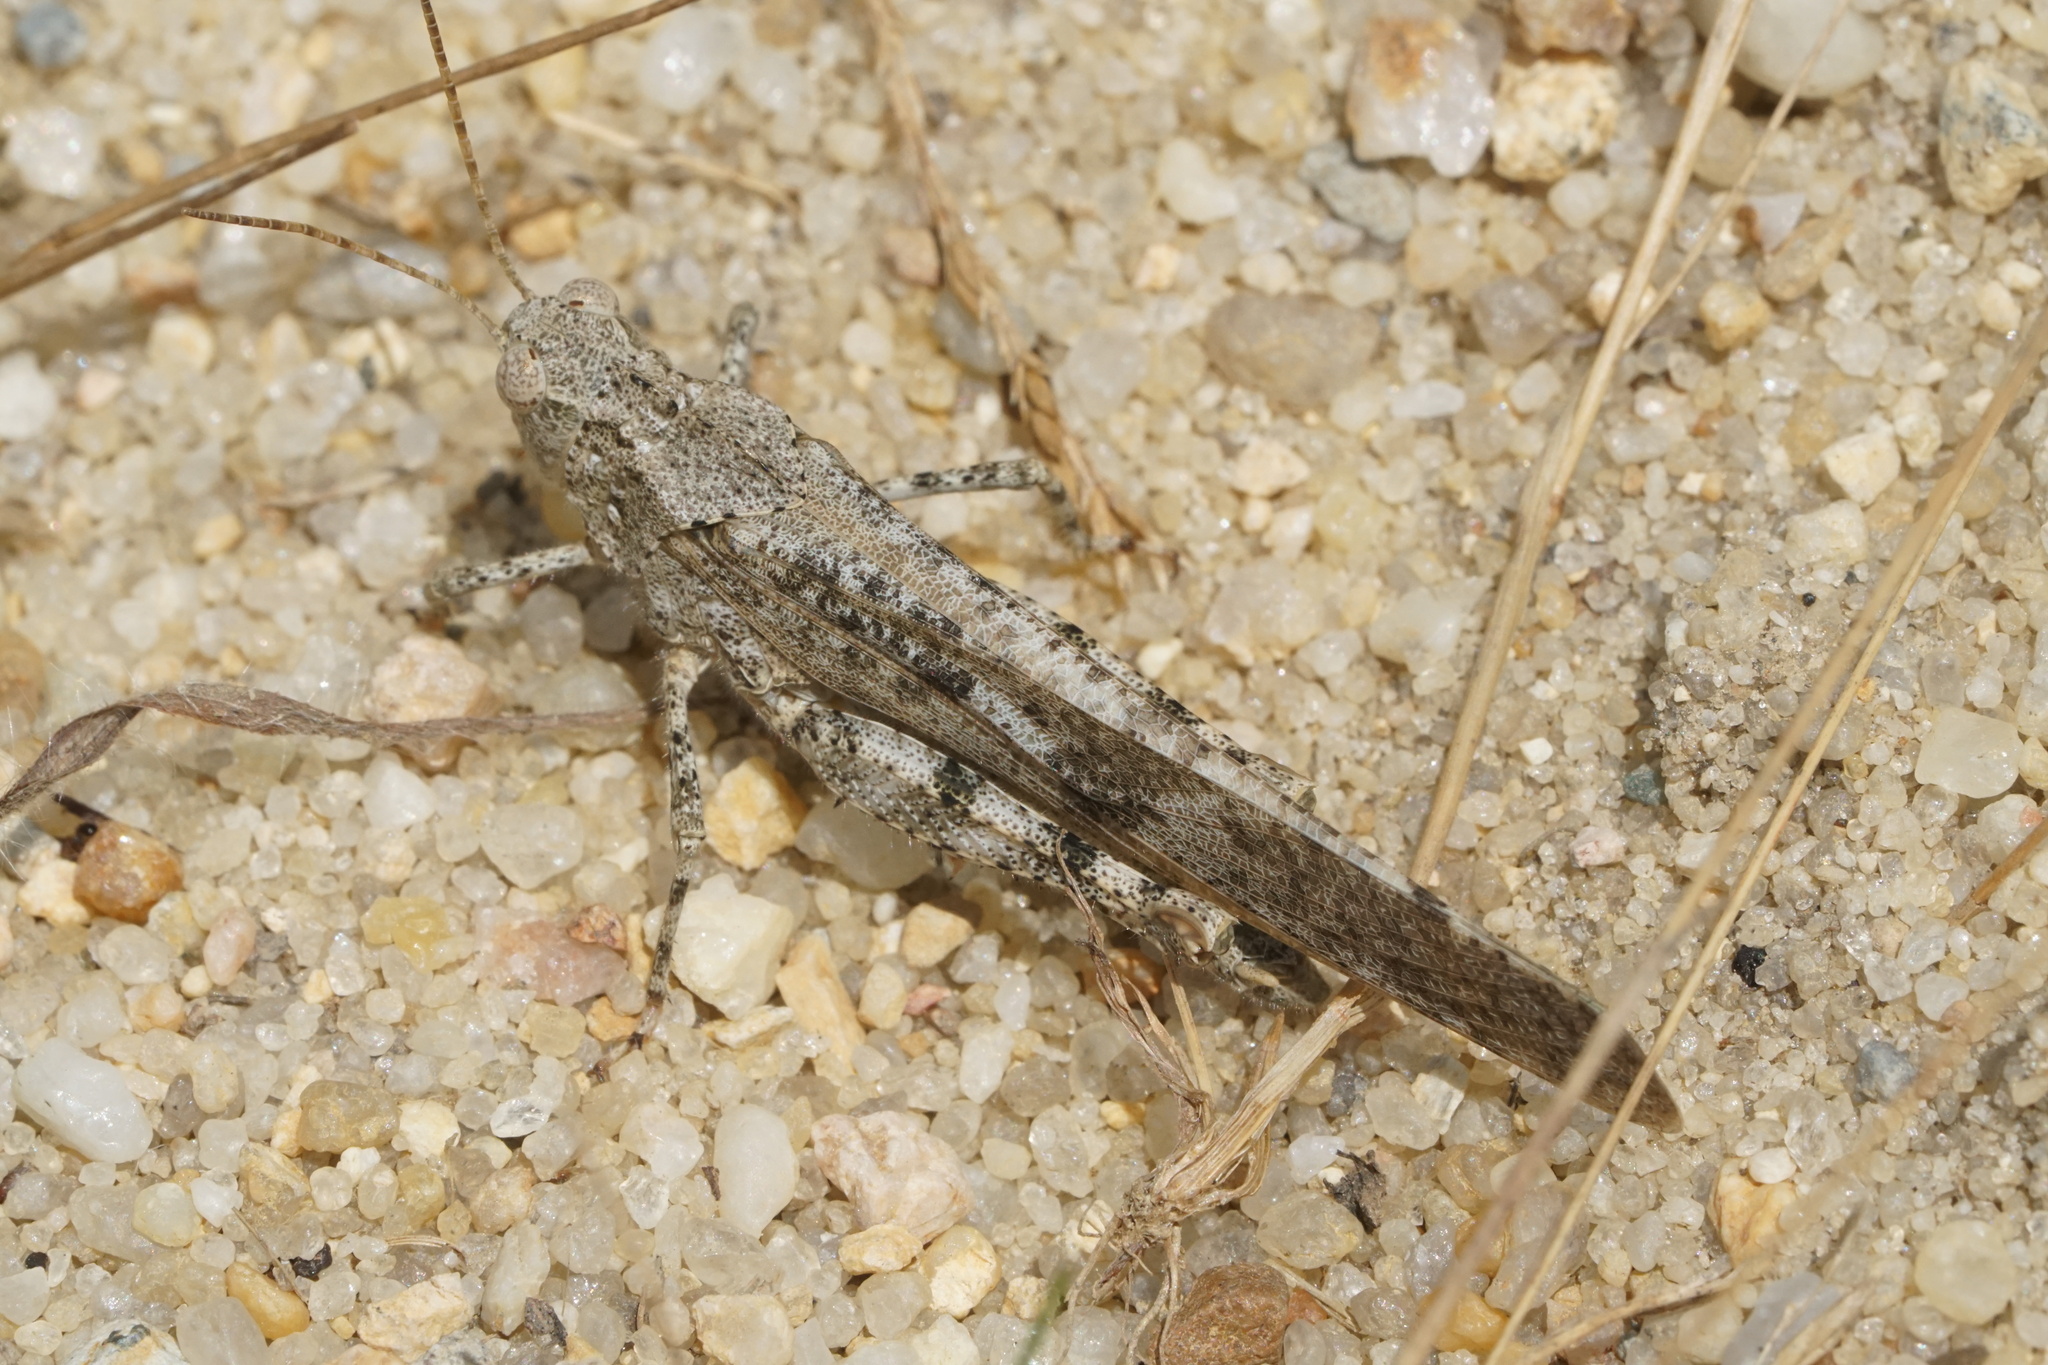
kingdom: Animalia
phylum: Arthropoda
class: Insecta
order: Orthoptera
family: Acrididae
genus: Dissosteira
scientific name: Dissosteira carolina
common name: Carolina grasshopper
